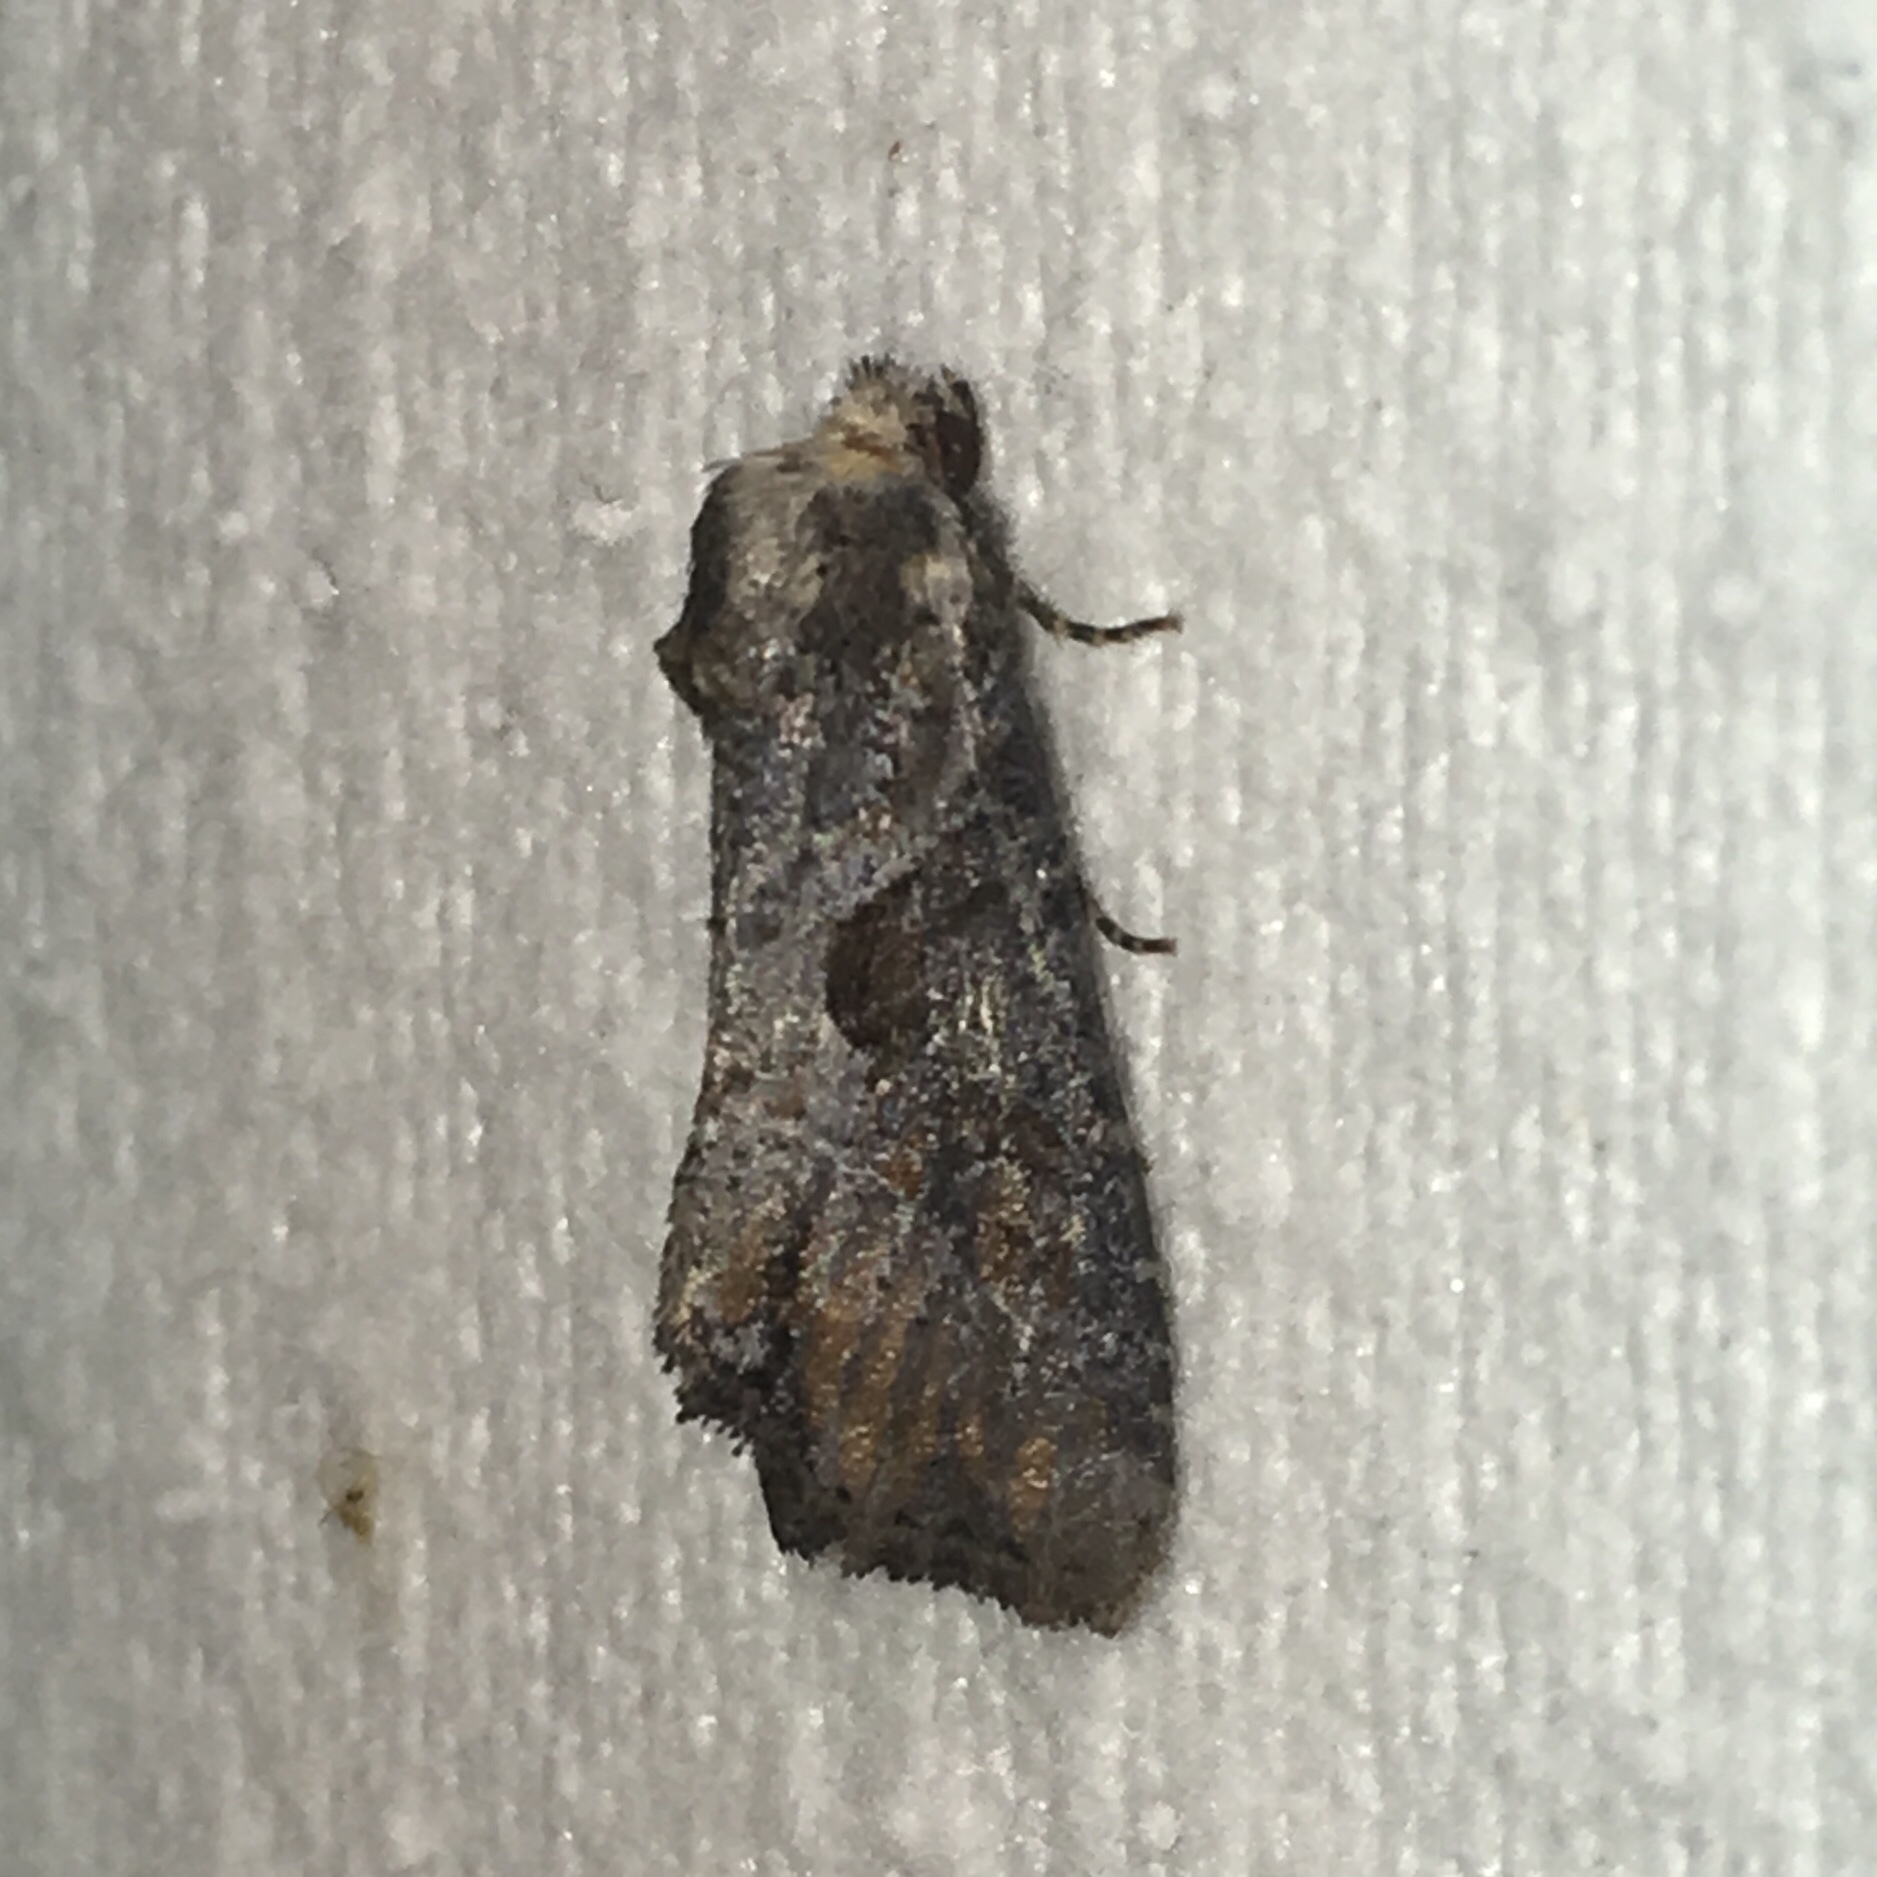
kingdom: Animalia
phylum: Arthropoda
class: Insecta
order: Lepidoptera
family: Noctuidae
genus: Lateroligia
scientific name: Lateroligia ophiogramma
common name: Double lobed
